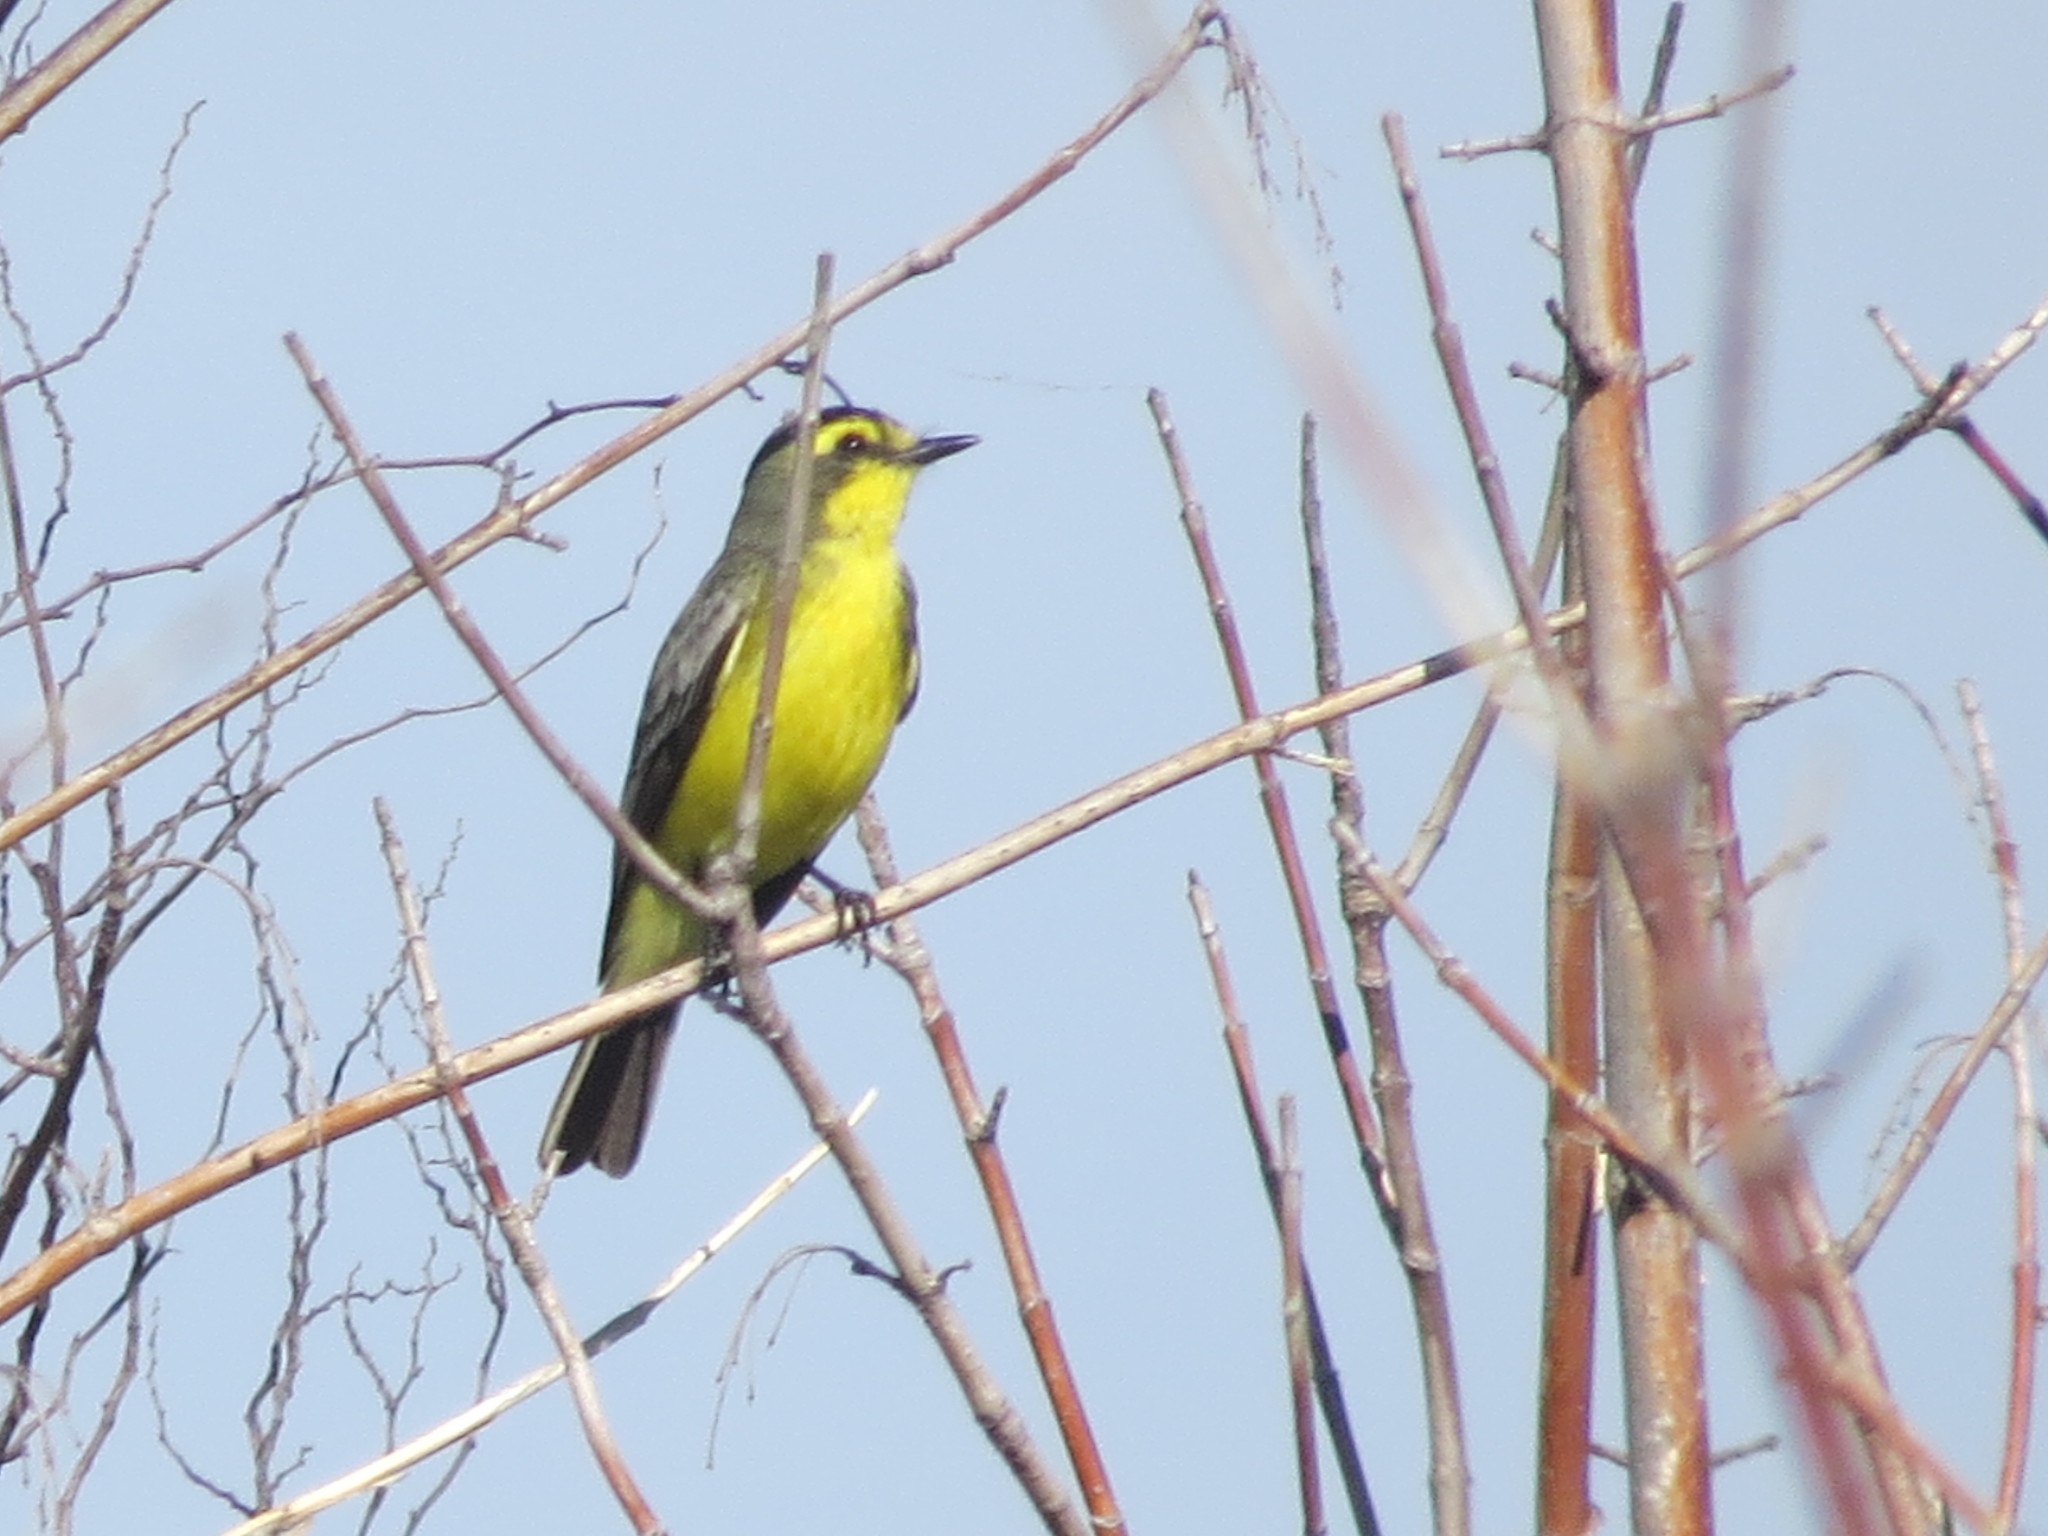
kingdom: Animalia
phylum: Chordata
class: Aves
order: Passeriformes
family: Tyrannidae
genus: Satrapa
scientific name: Satrapa icterophrys
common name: Yellow-browed tyrant
